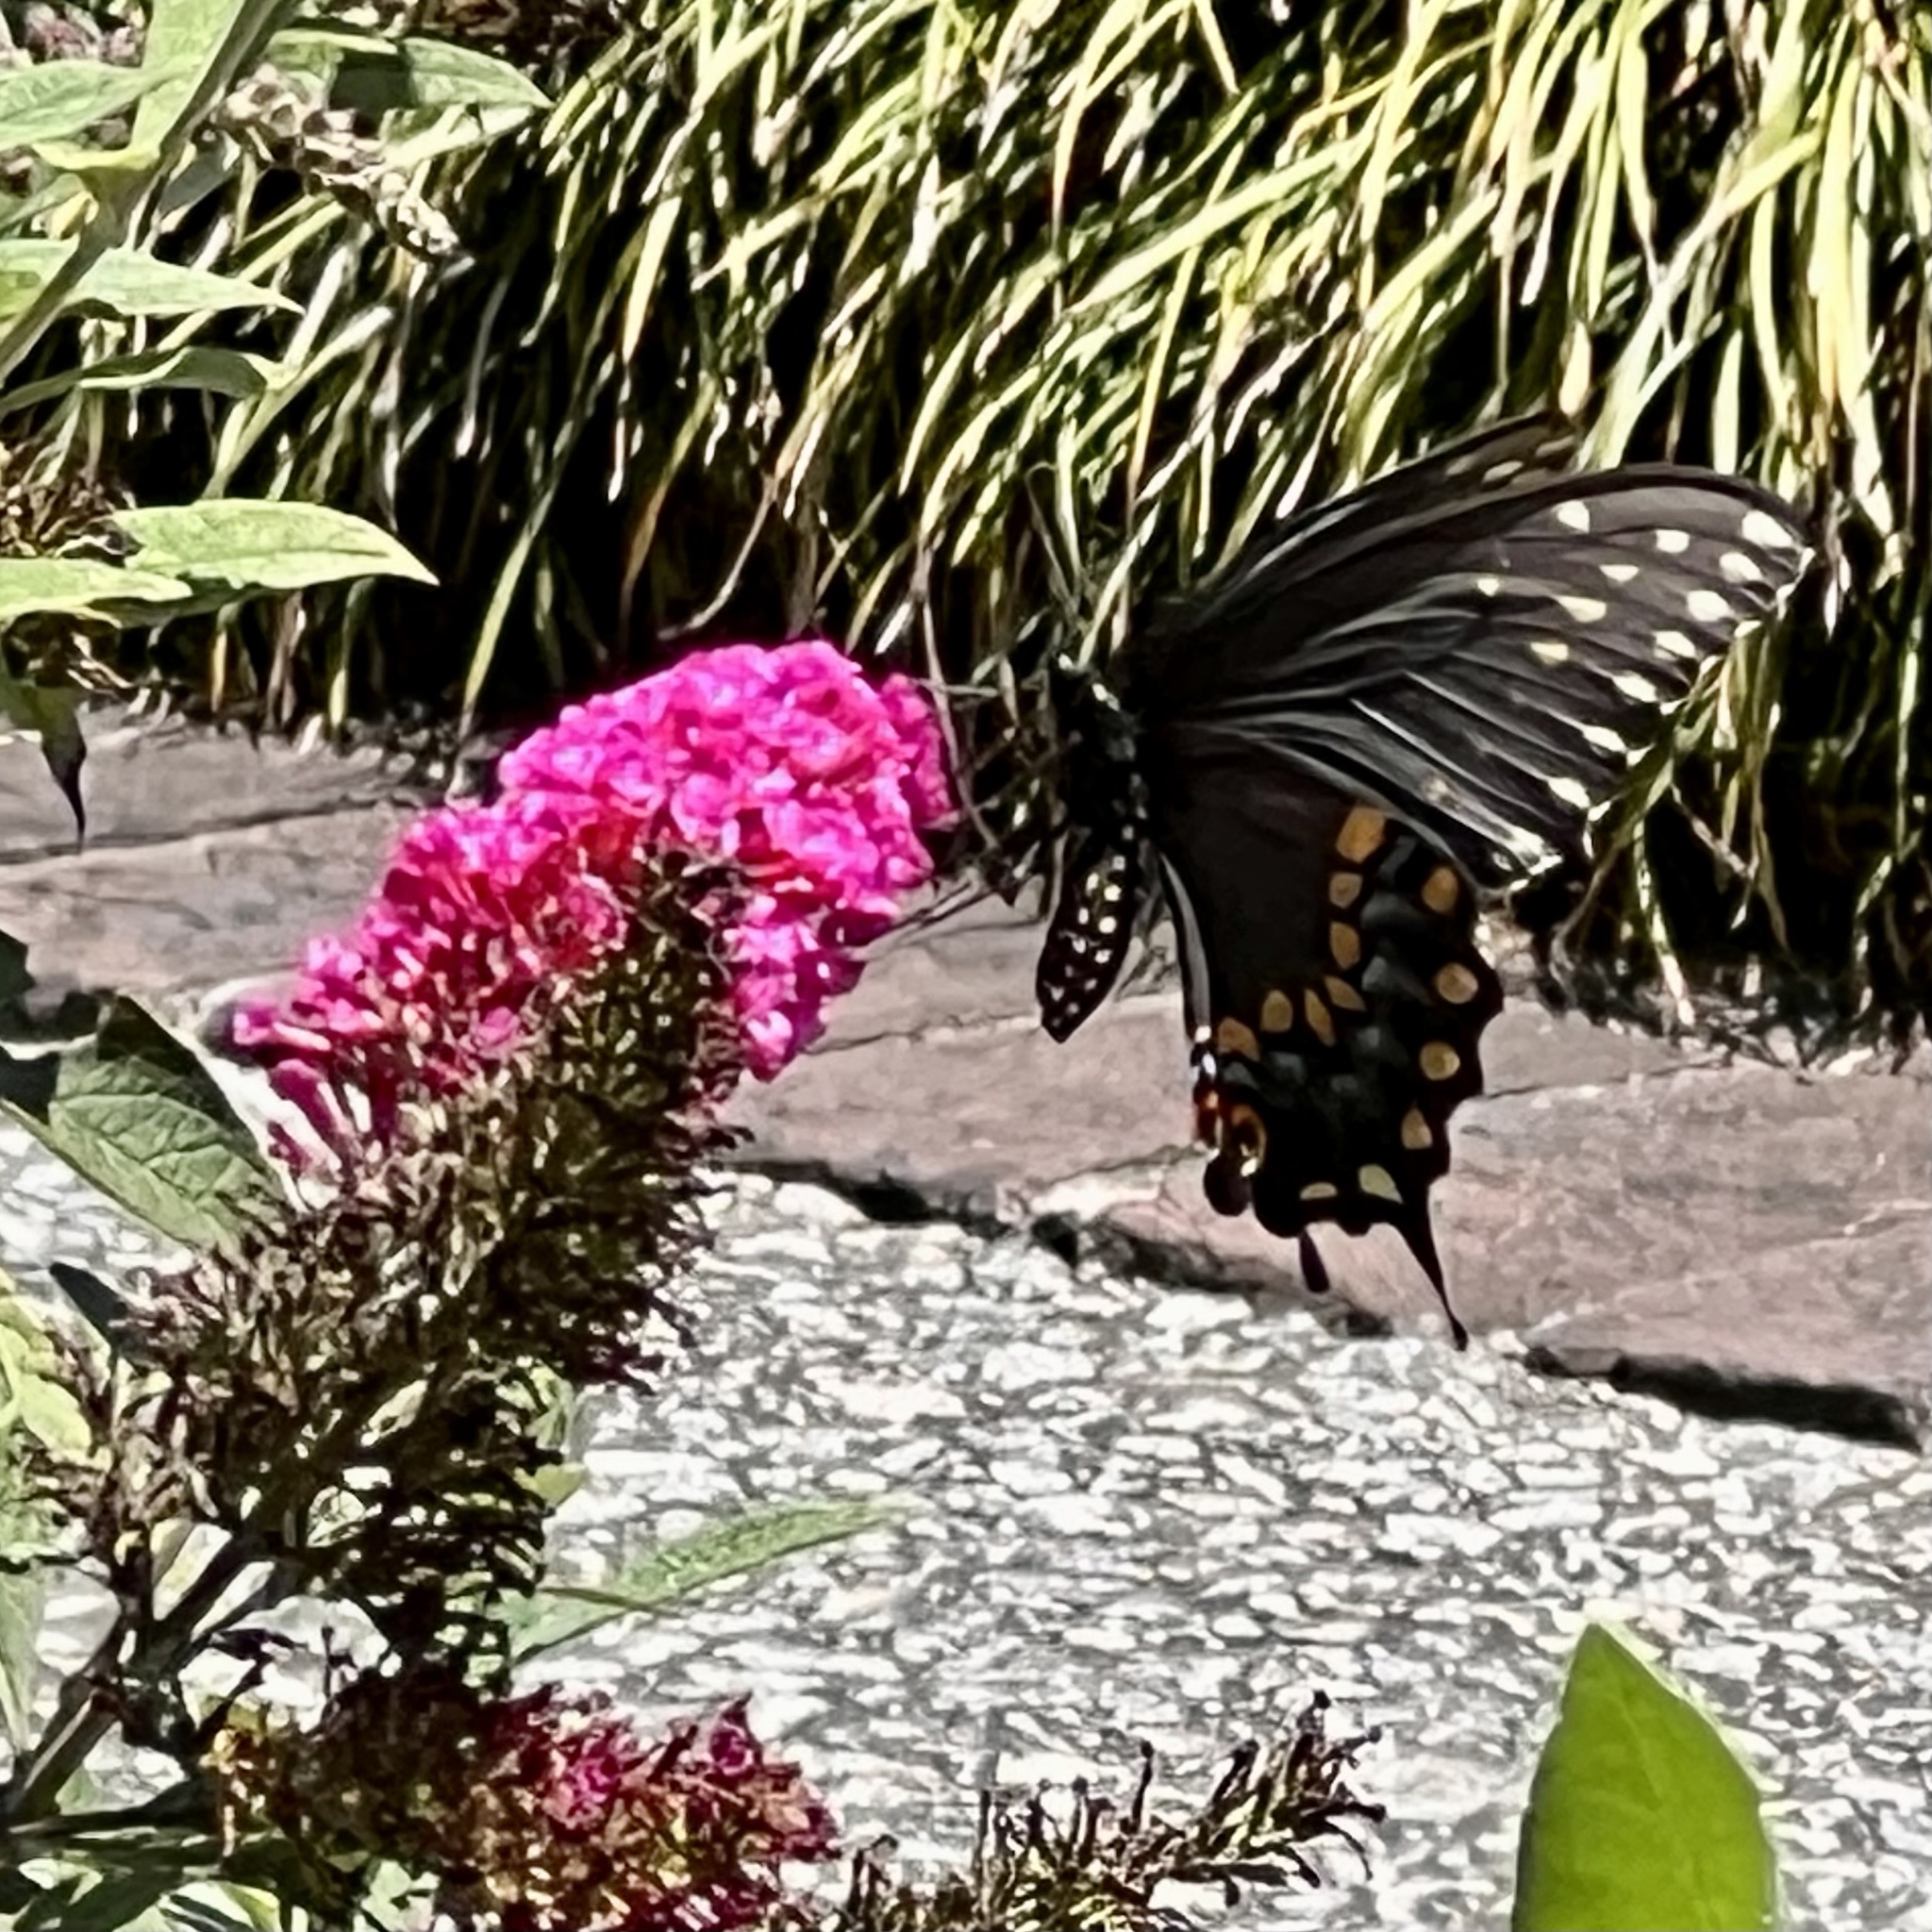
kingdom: Animalia
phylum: Arthropoda
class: Insecta
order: Lepidoptera
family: Papilionidae
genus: Papilio
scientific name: Papilio polyxenes
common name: Black swallowtail
